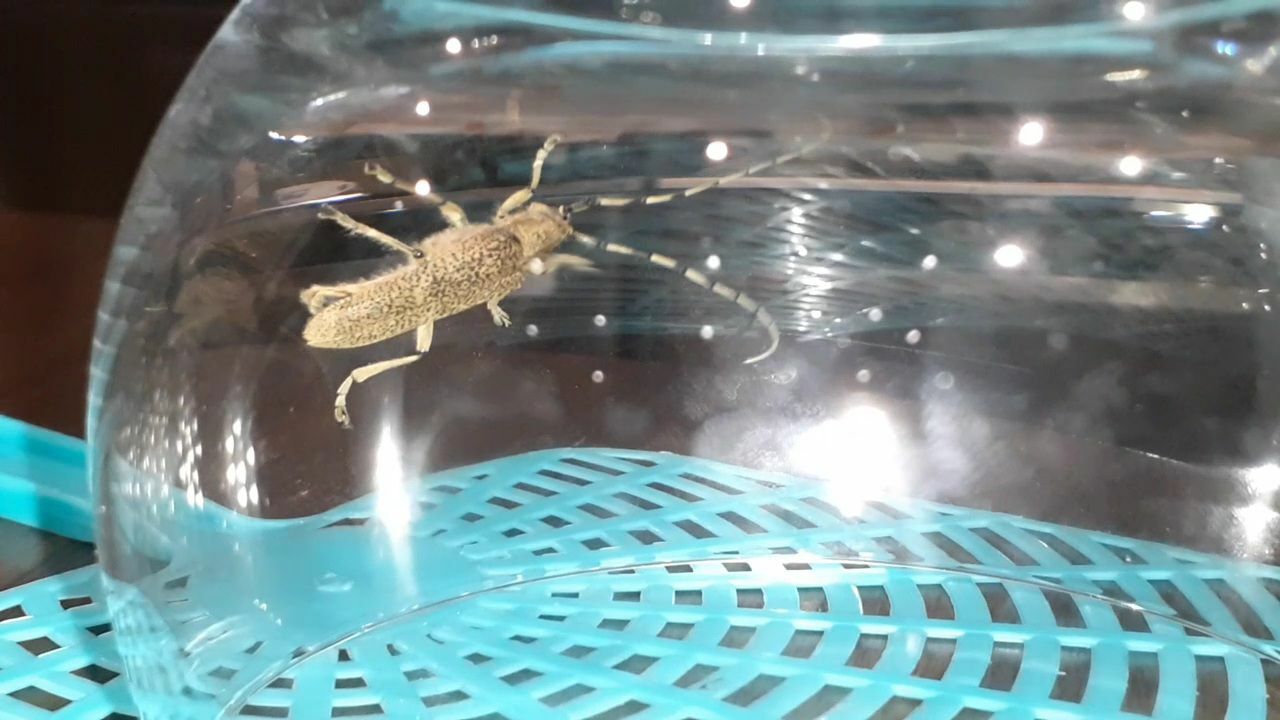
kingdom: Animalia
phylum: Arthropoda
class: Insecta
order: Coleoptera
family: Cerambycidae
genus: Saperda
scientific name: Saperda carcharias
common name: Poplar borer
